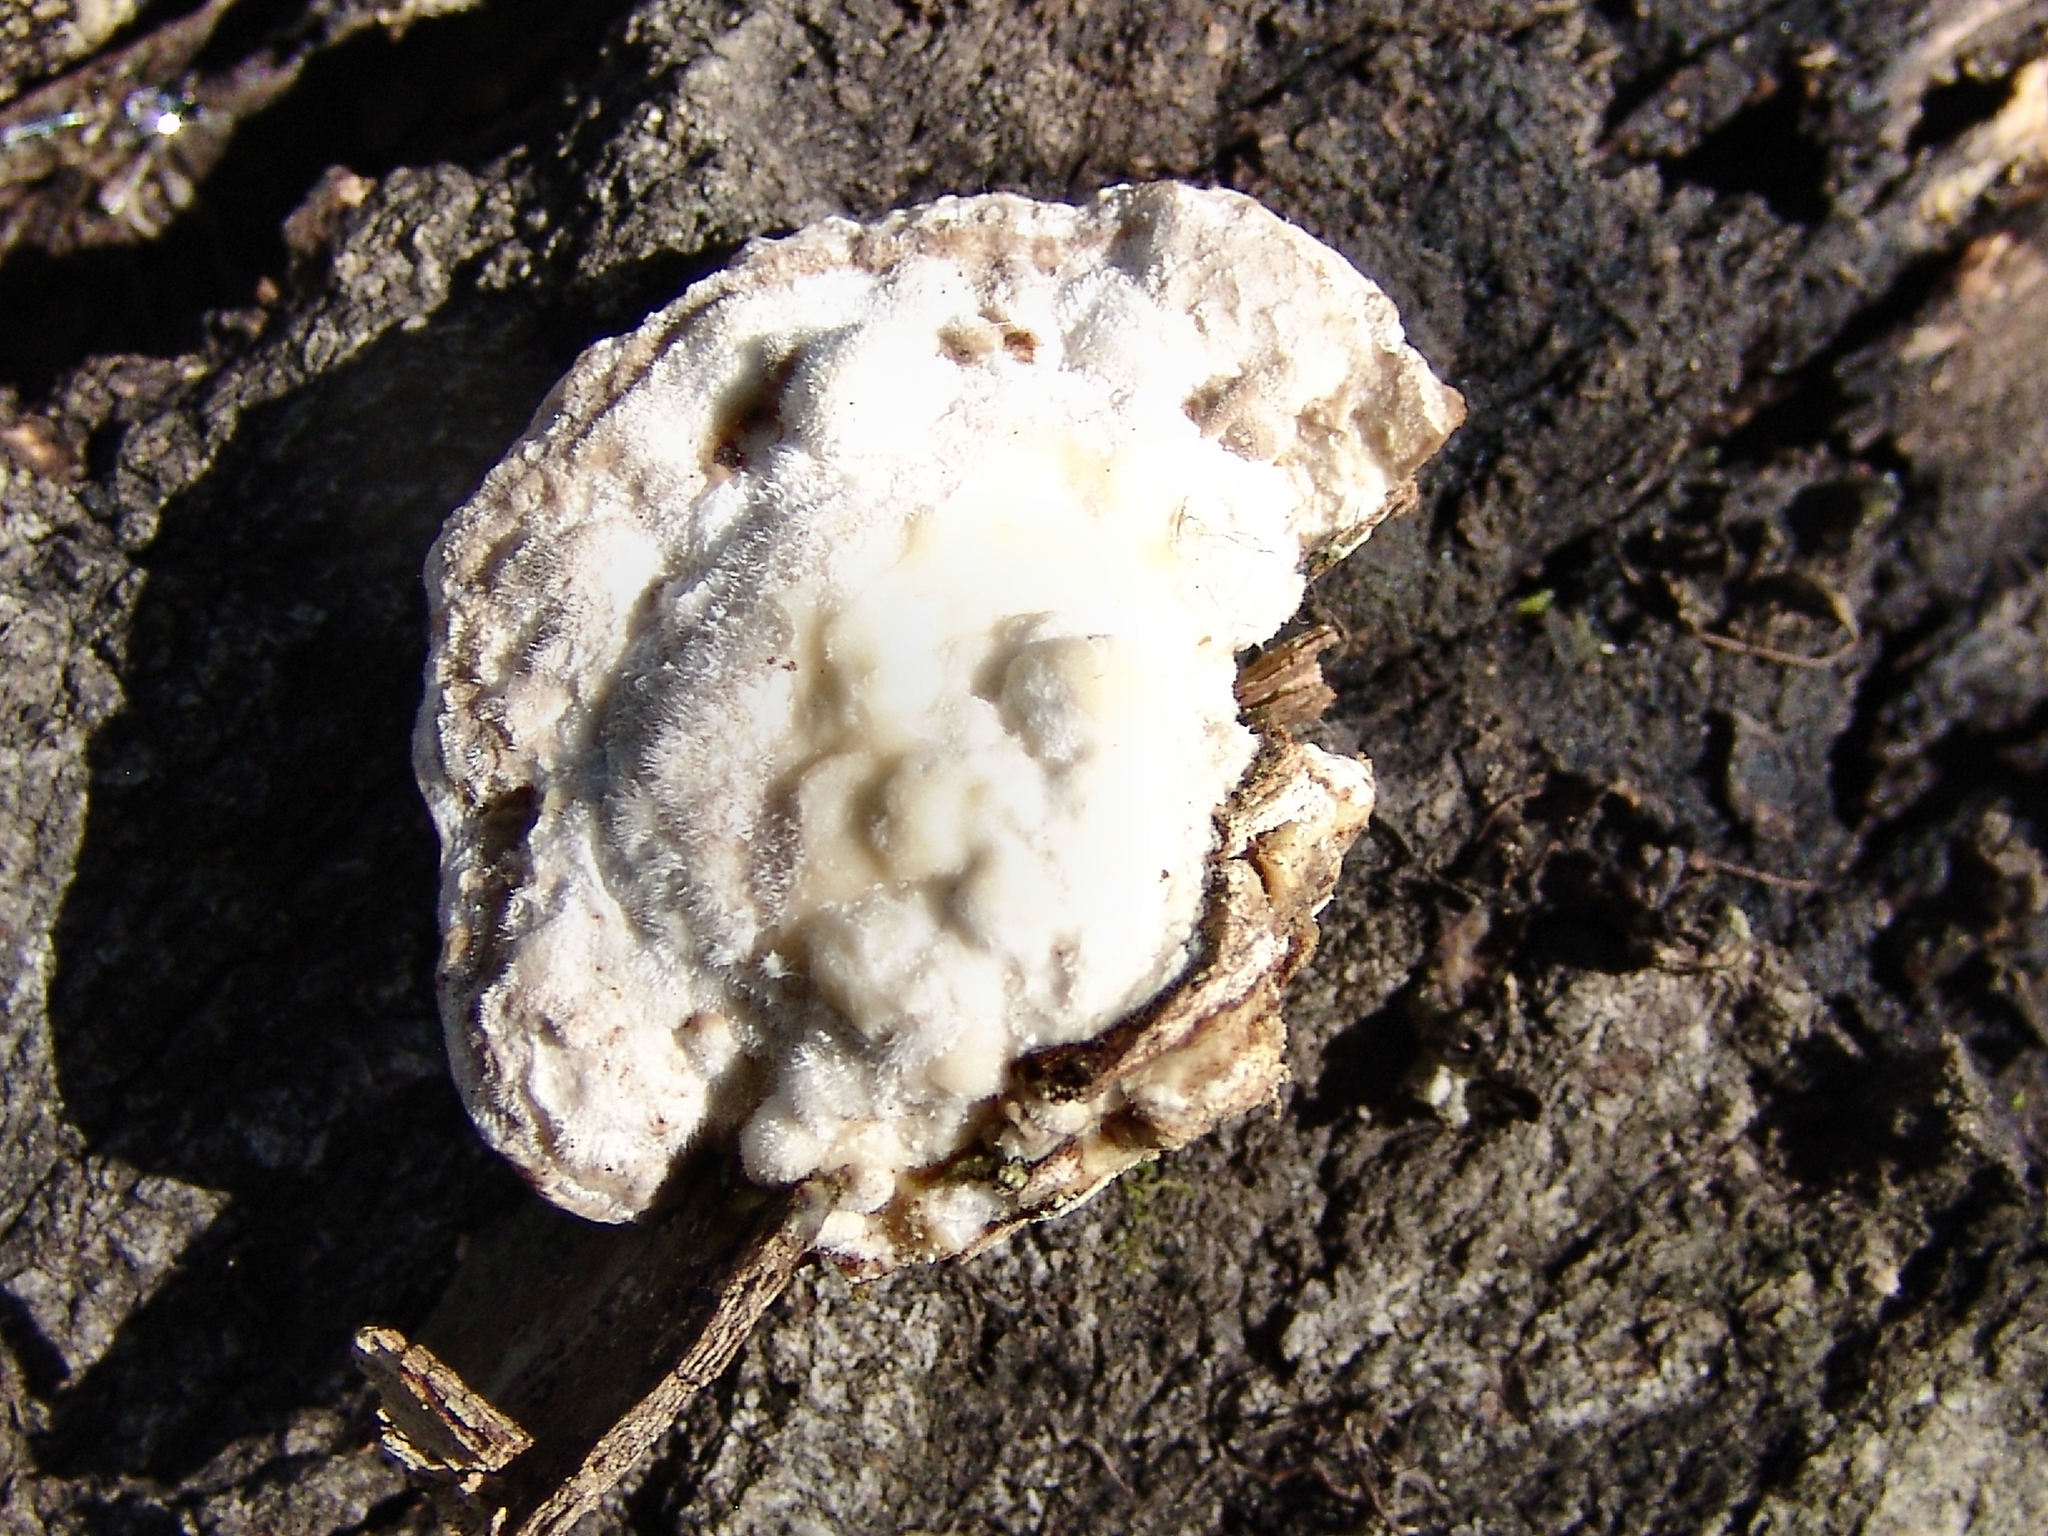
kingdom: Fungi
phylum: Basidiomycota
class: Agaricomycetes
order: Polyporales
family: Polyporaceae
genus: Trametes
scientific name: Trametes gibbosa
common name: Lumpy bracket
